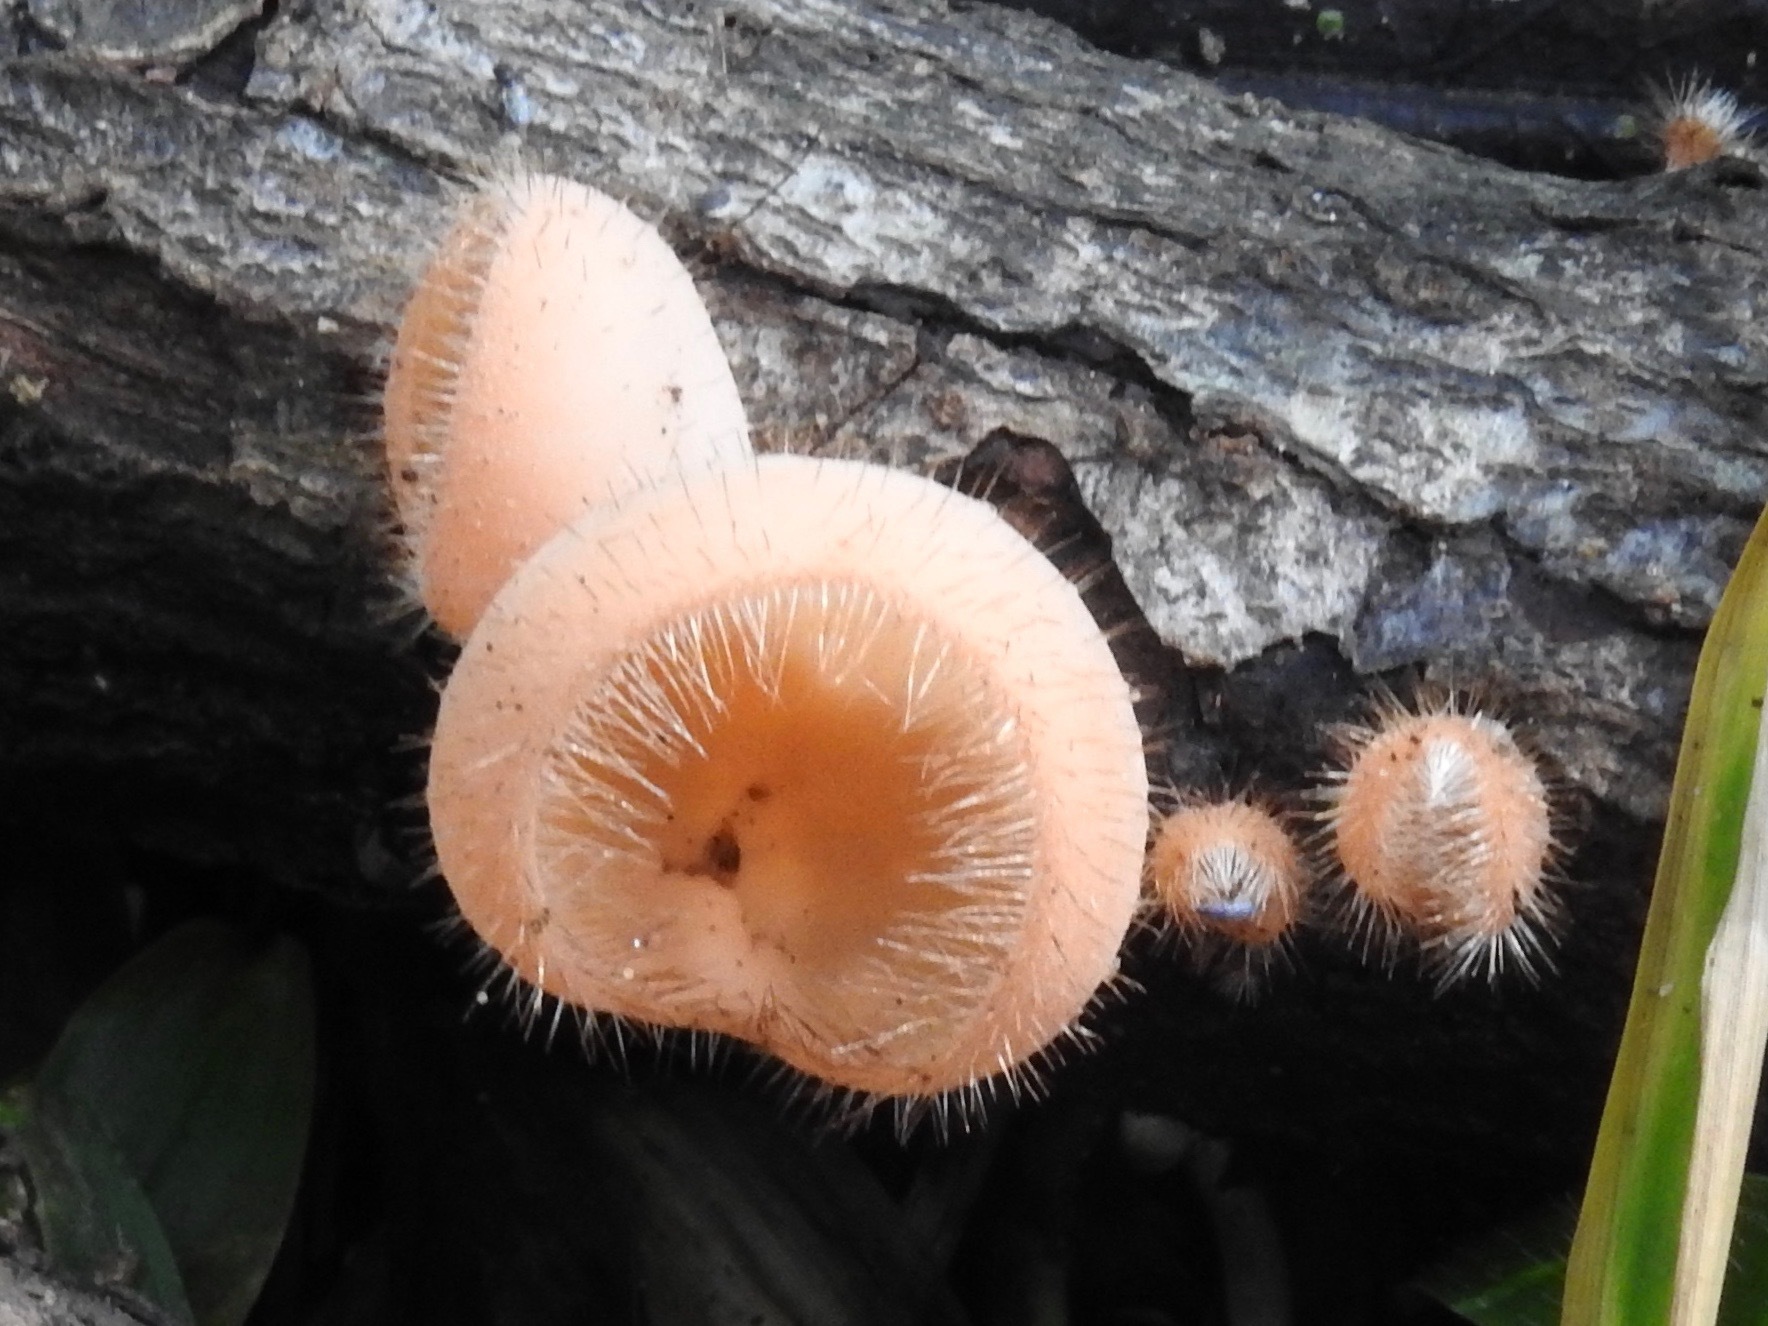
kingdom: Fungi
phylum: Ascomycota
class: Pezizomycetes
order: Pezizales
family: Sarcoscyphaceae
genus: Cookeina
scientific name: Cookeina tricholoma
